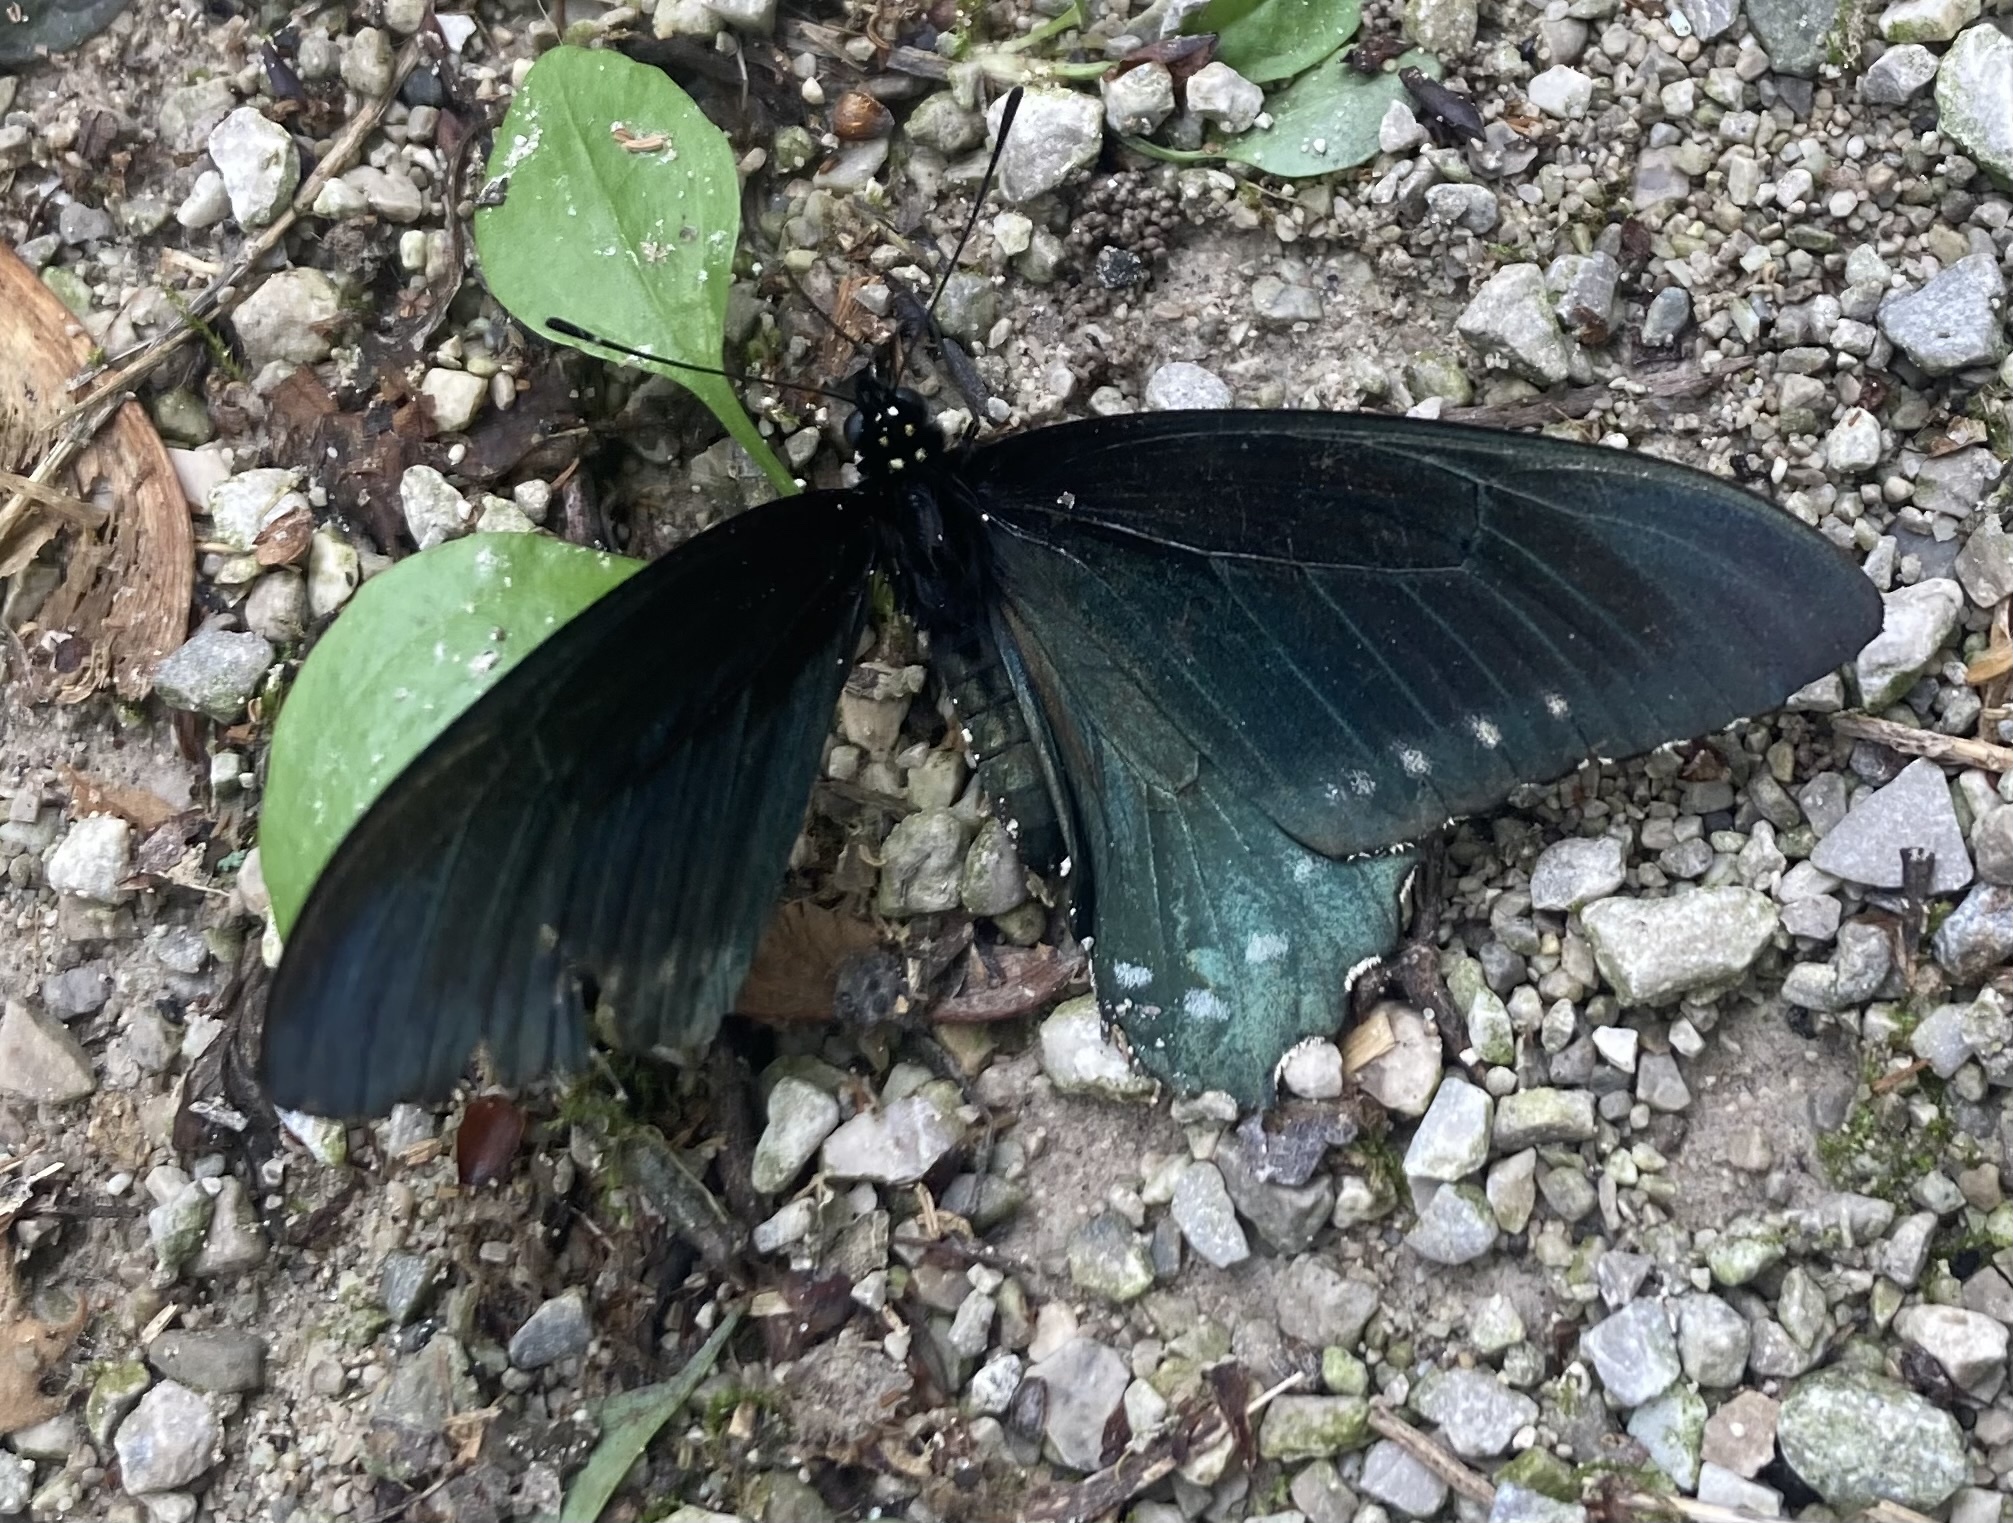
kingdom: Animalia
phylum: Arthropoda
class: Insecta
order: Lepidoptera
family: Papilionidae
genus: Battus
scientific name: Battus philenor
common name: Pipevine swallowtail
